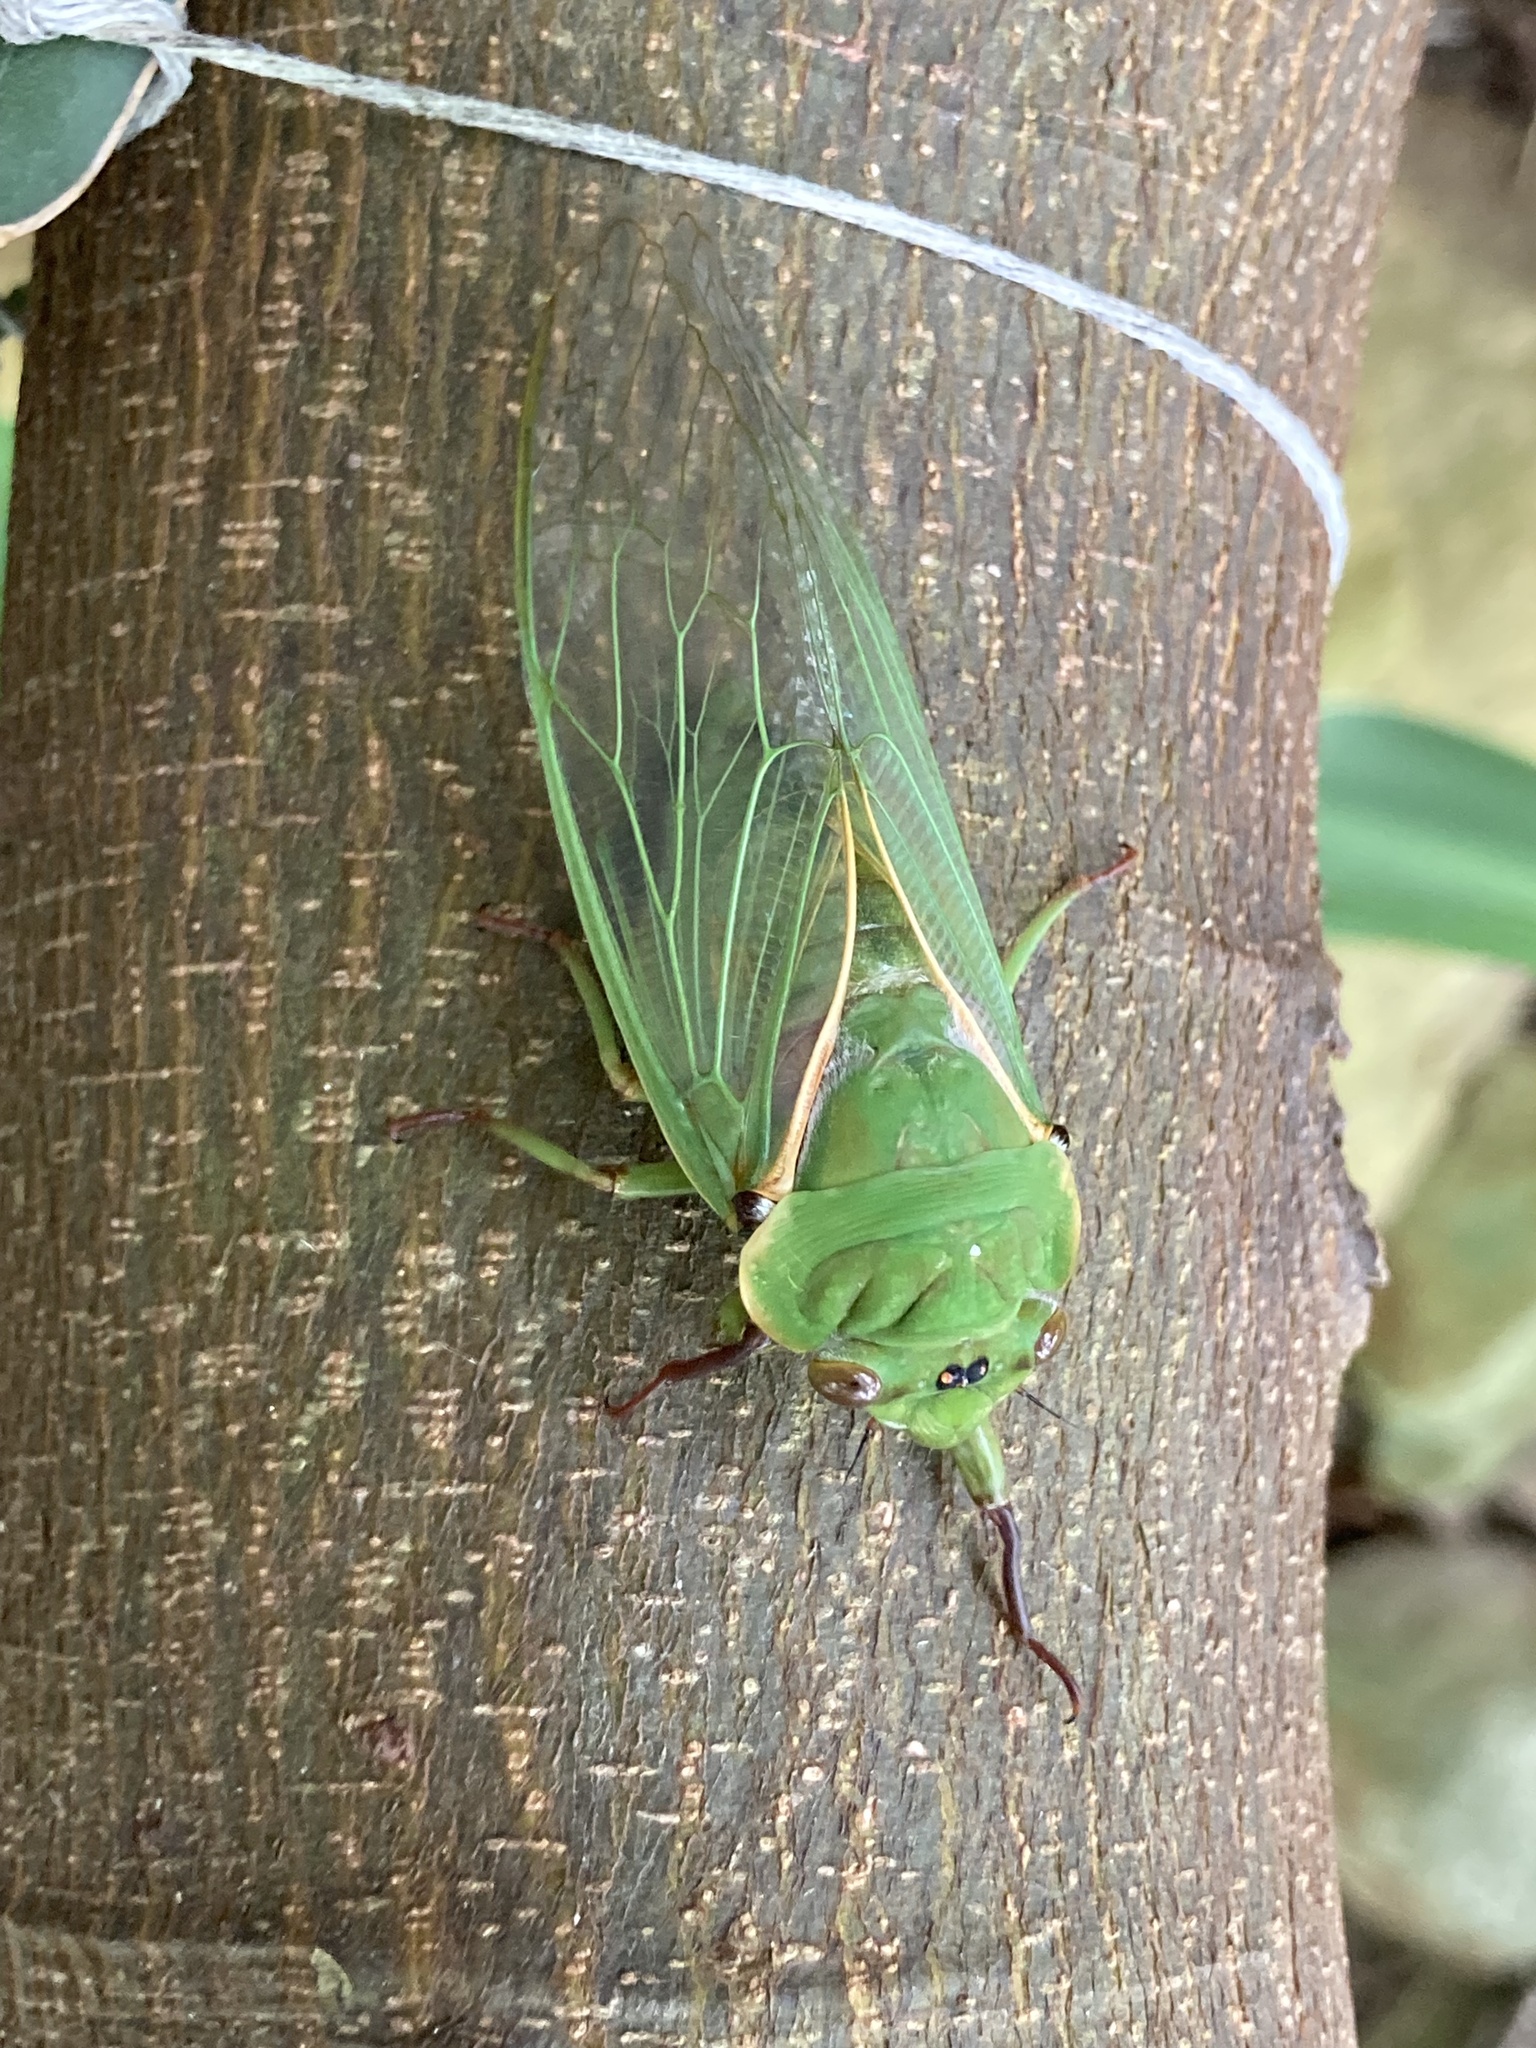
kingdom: Animalia
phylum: Arthropoda
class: Insecta
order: Hemiptera
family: Cicadidae
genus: Cyclochila
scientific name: Cyclochila australasiae
